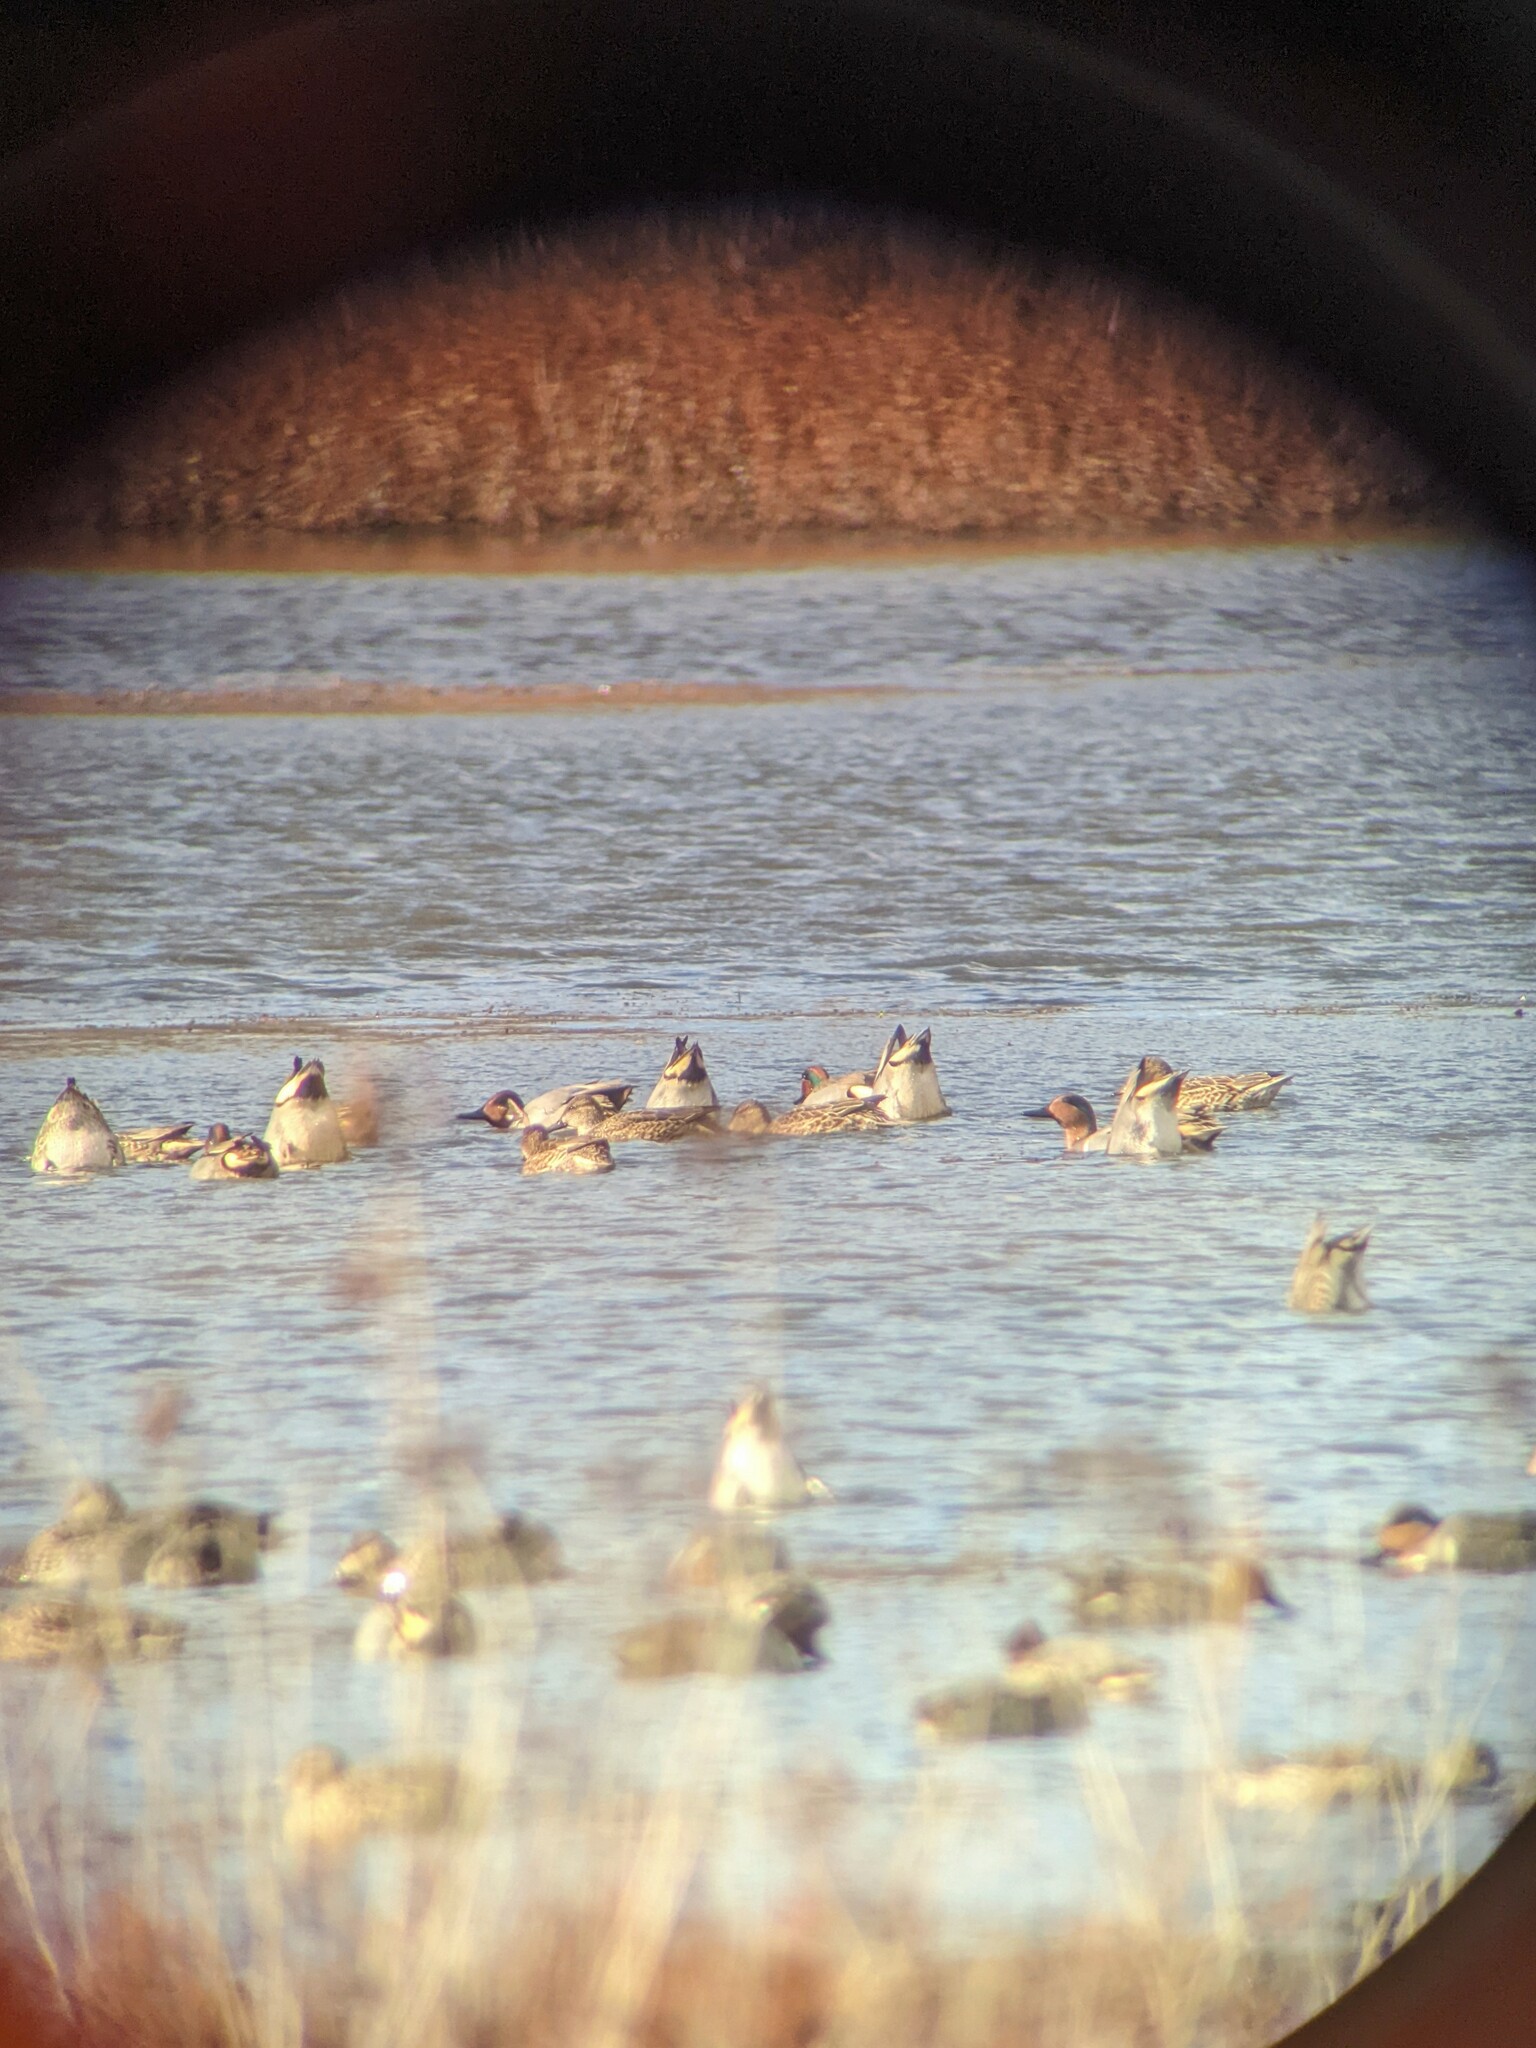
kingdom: Animalia
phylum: Chordata
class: Aves
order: Anseriformes
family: Anatidae
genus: Anas
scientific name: Anas carolinensis
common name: Green-winged teal
